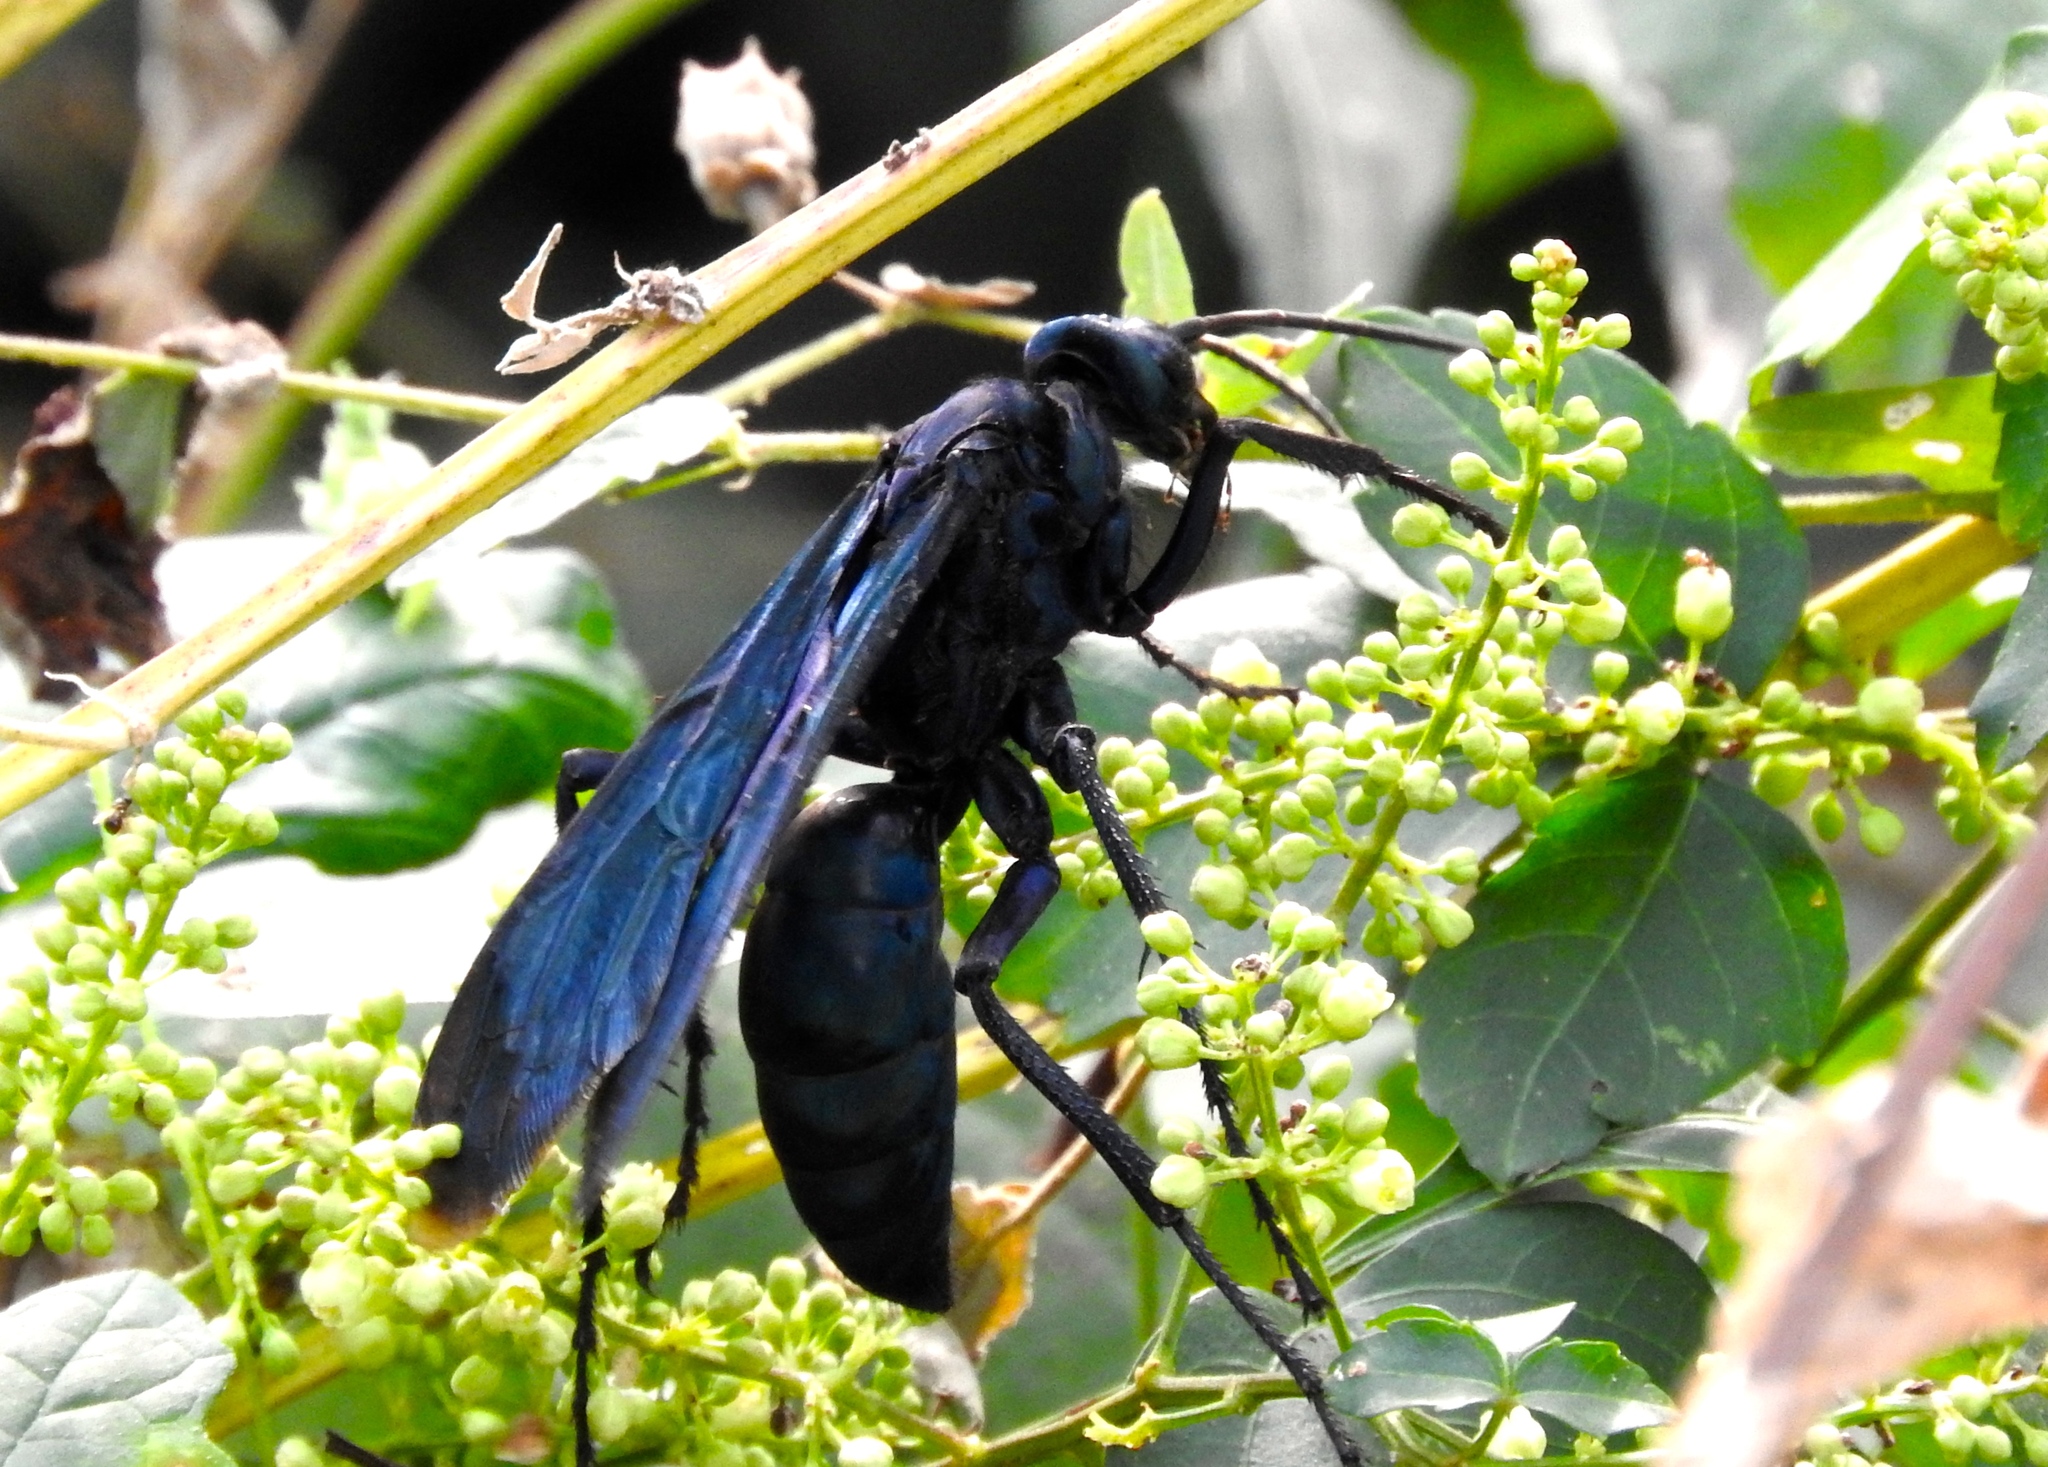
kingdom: Animalia
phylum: Arthropoda
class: Insecta
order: Hymenoptera
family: Pompilidae
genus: Pepsis
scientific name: Pepsis mexicana
